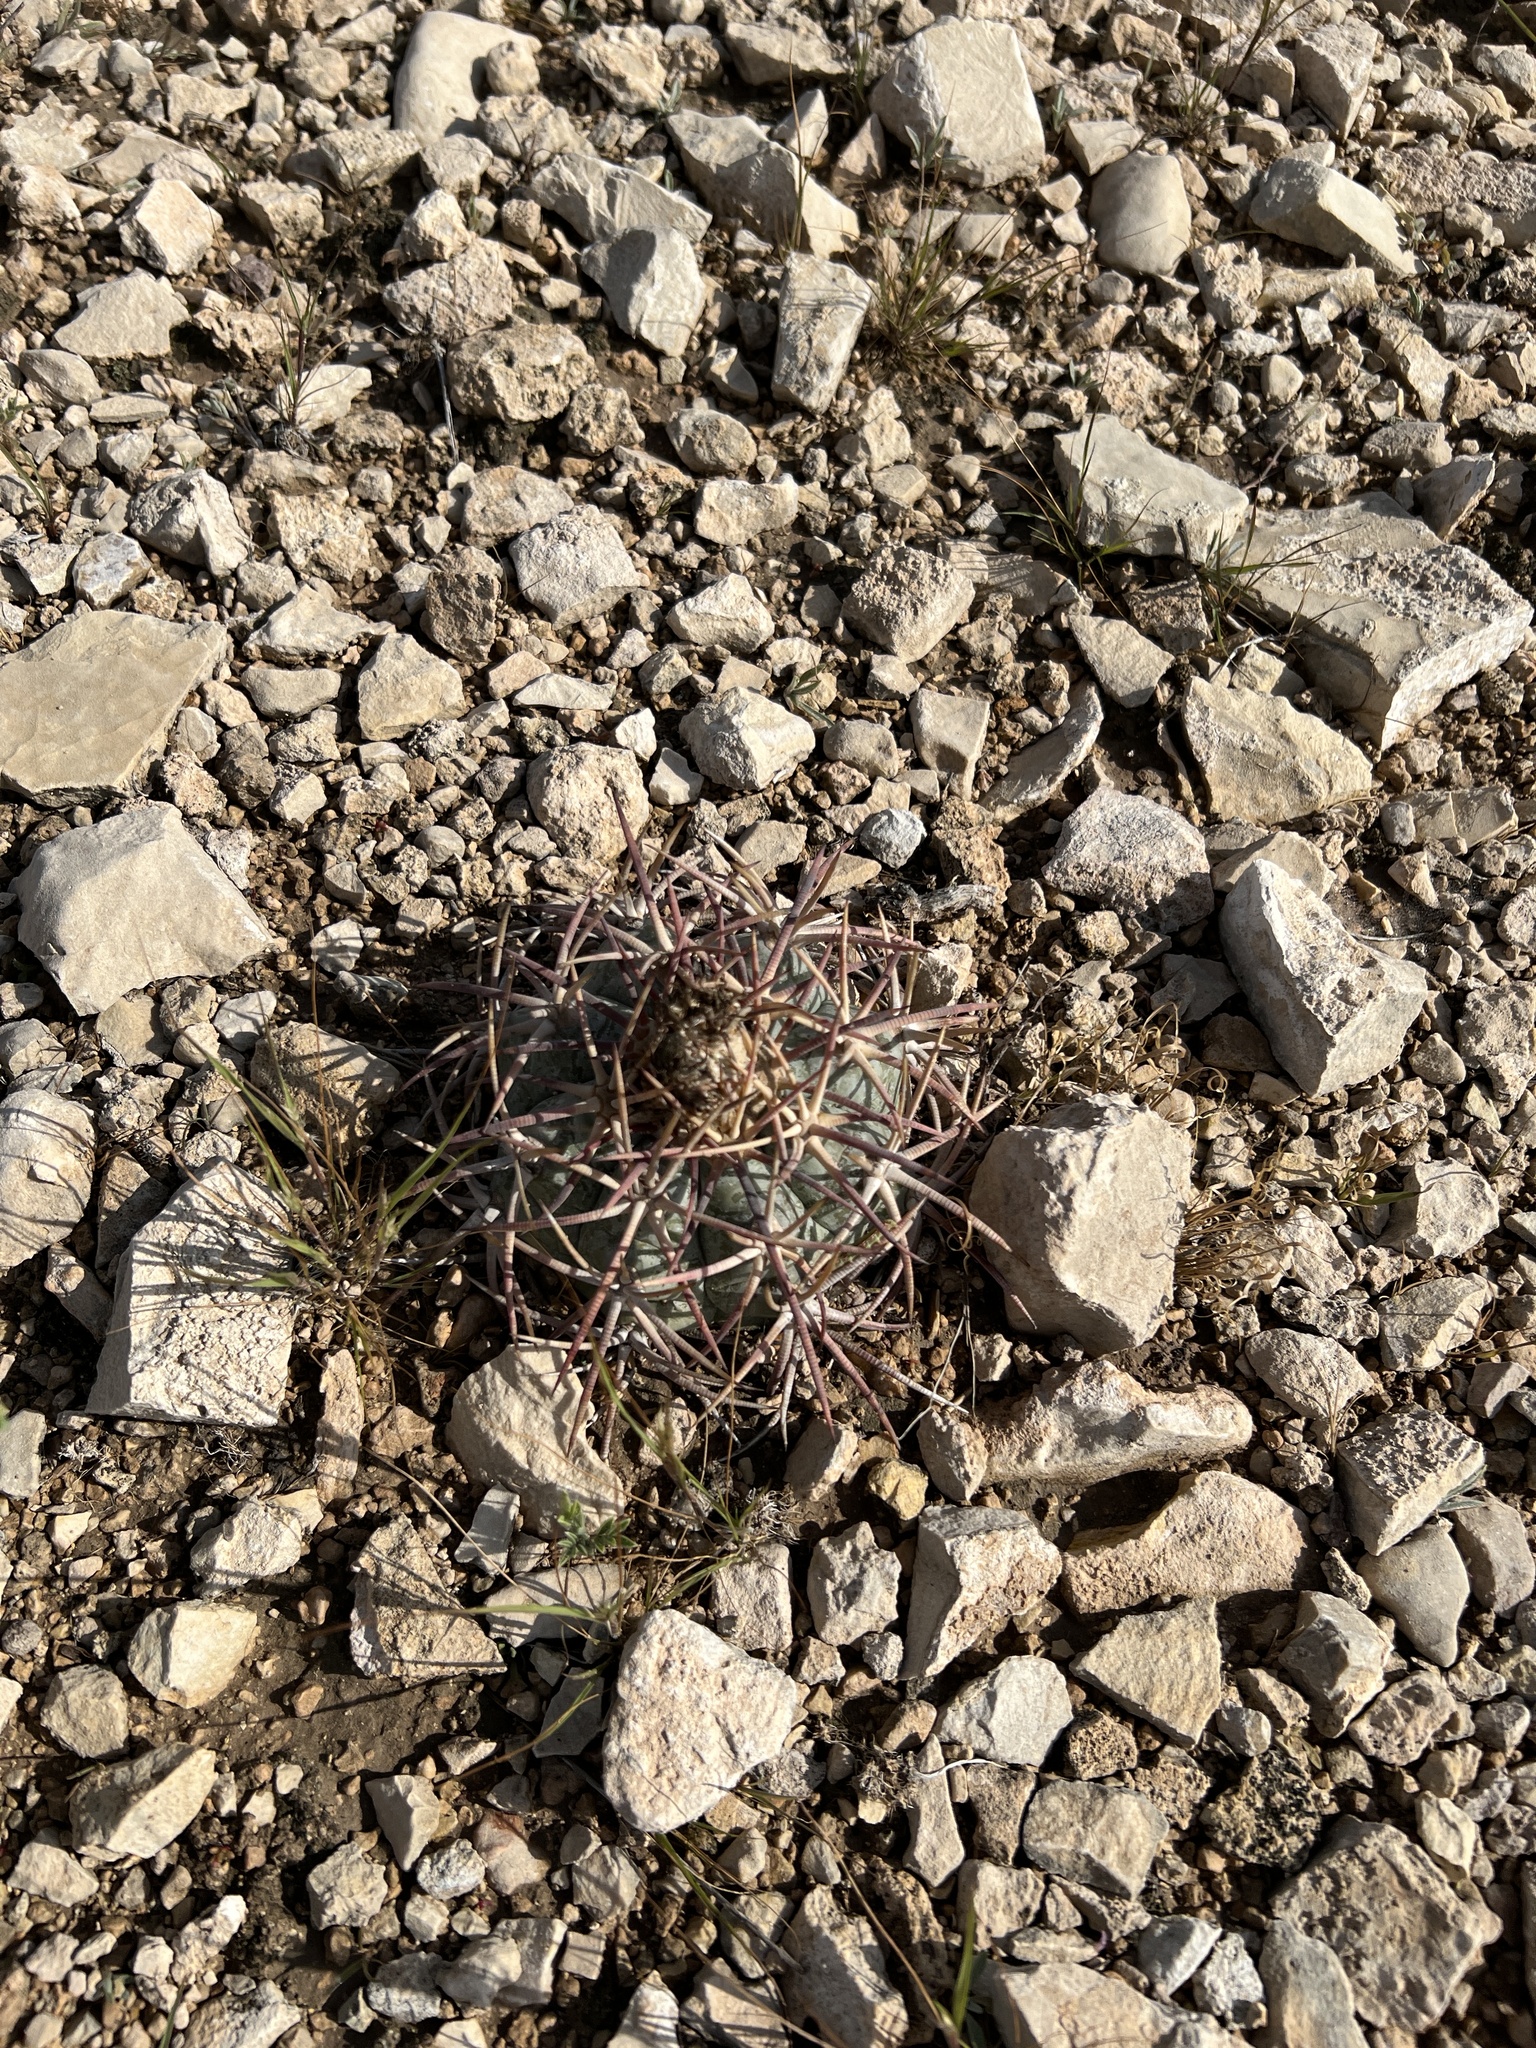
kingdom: Plantae
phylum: Tracheophyta
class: Magnoliopsida
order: Caryophyllales
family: Cactaceae
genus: Echinocactus
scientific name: Echinocactus horizonthalonius
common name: Devilshead
